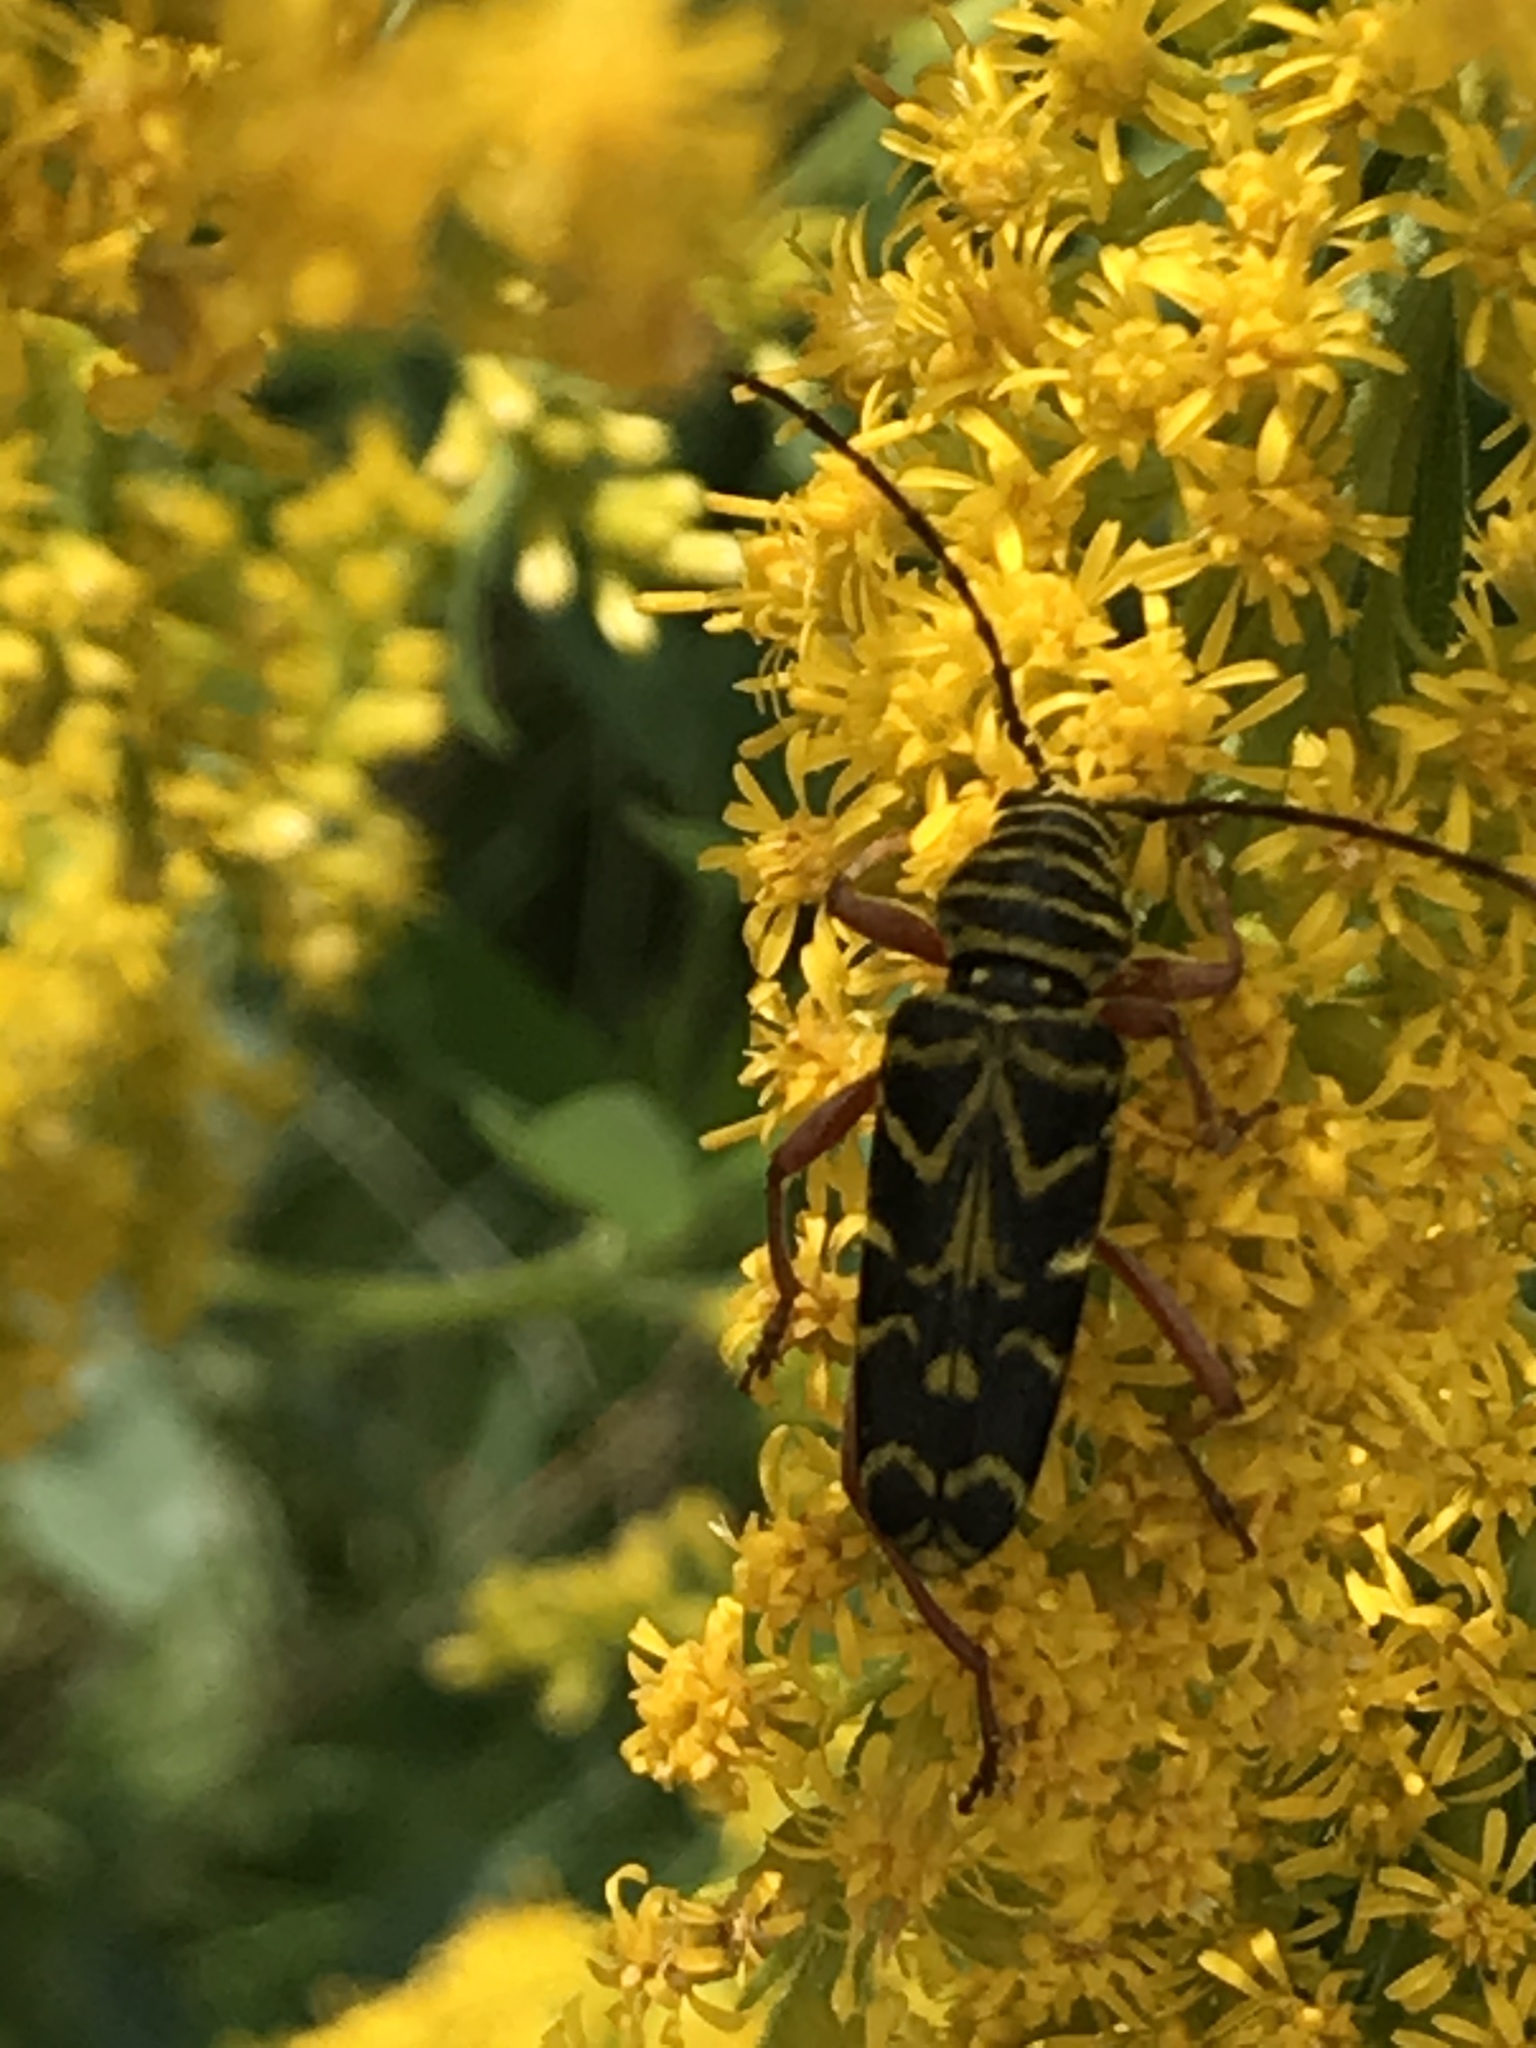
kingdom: Animalia
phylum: Arthropoda
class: Insecta
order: Coleoptera
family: Cerambycidae
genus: Megacyllene
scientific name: Megacyllene robiniae
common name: Locust borer
